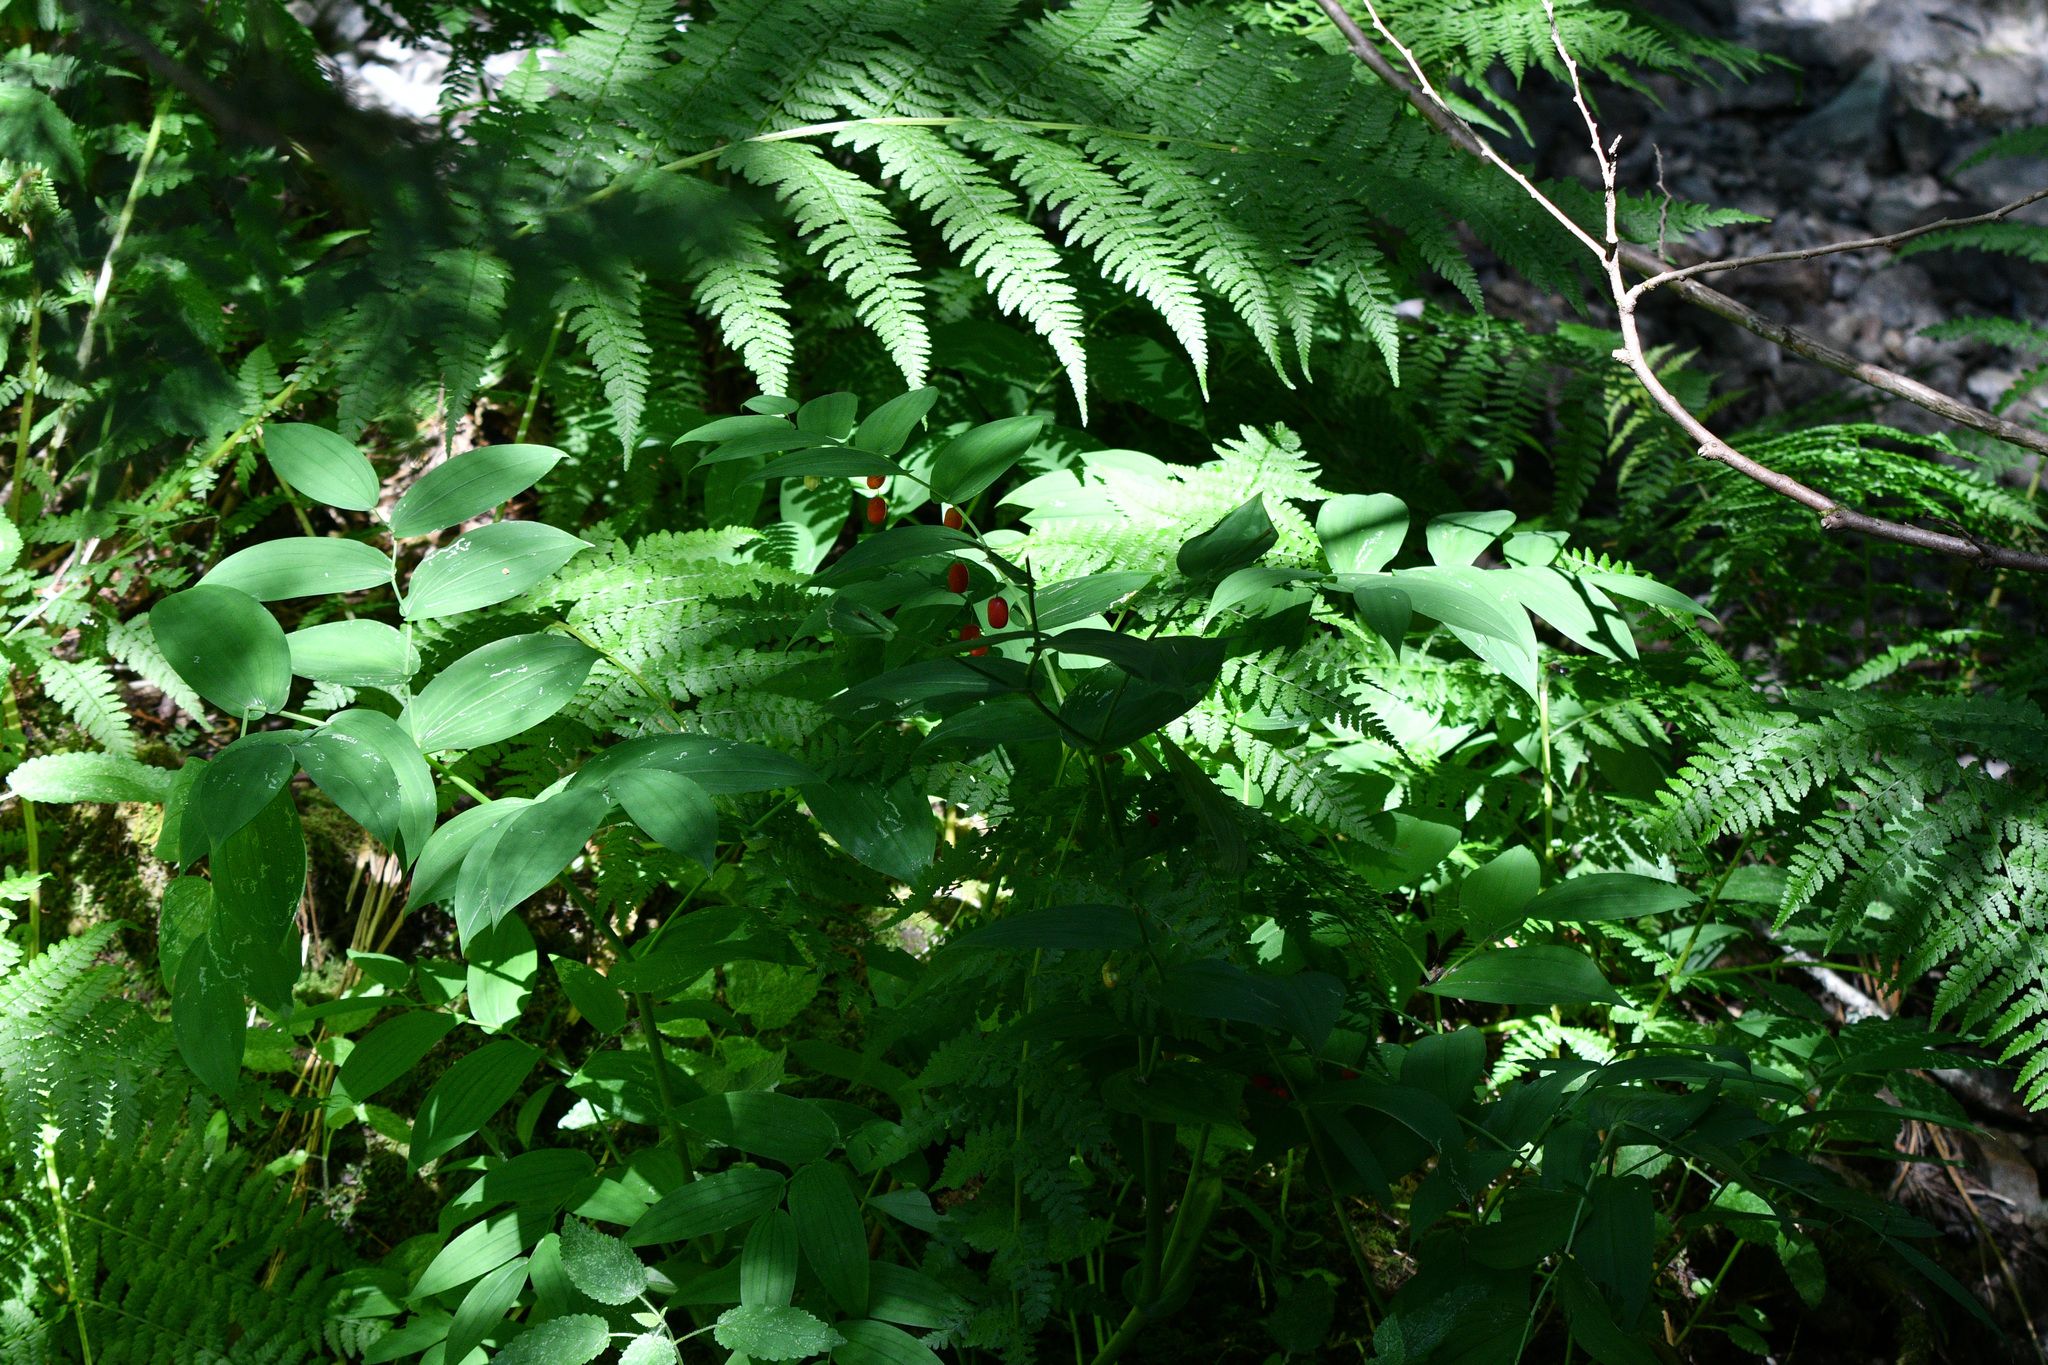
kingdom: Plantae
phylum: Tracheophyta
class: Liliopsida
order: Liliales
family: Liliaceae
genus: Streptopus
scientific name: Streptopus amplexifolius
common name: Clasp twisted stalk
